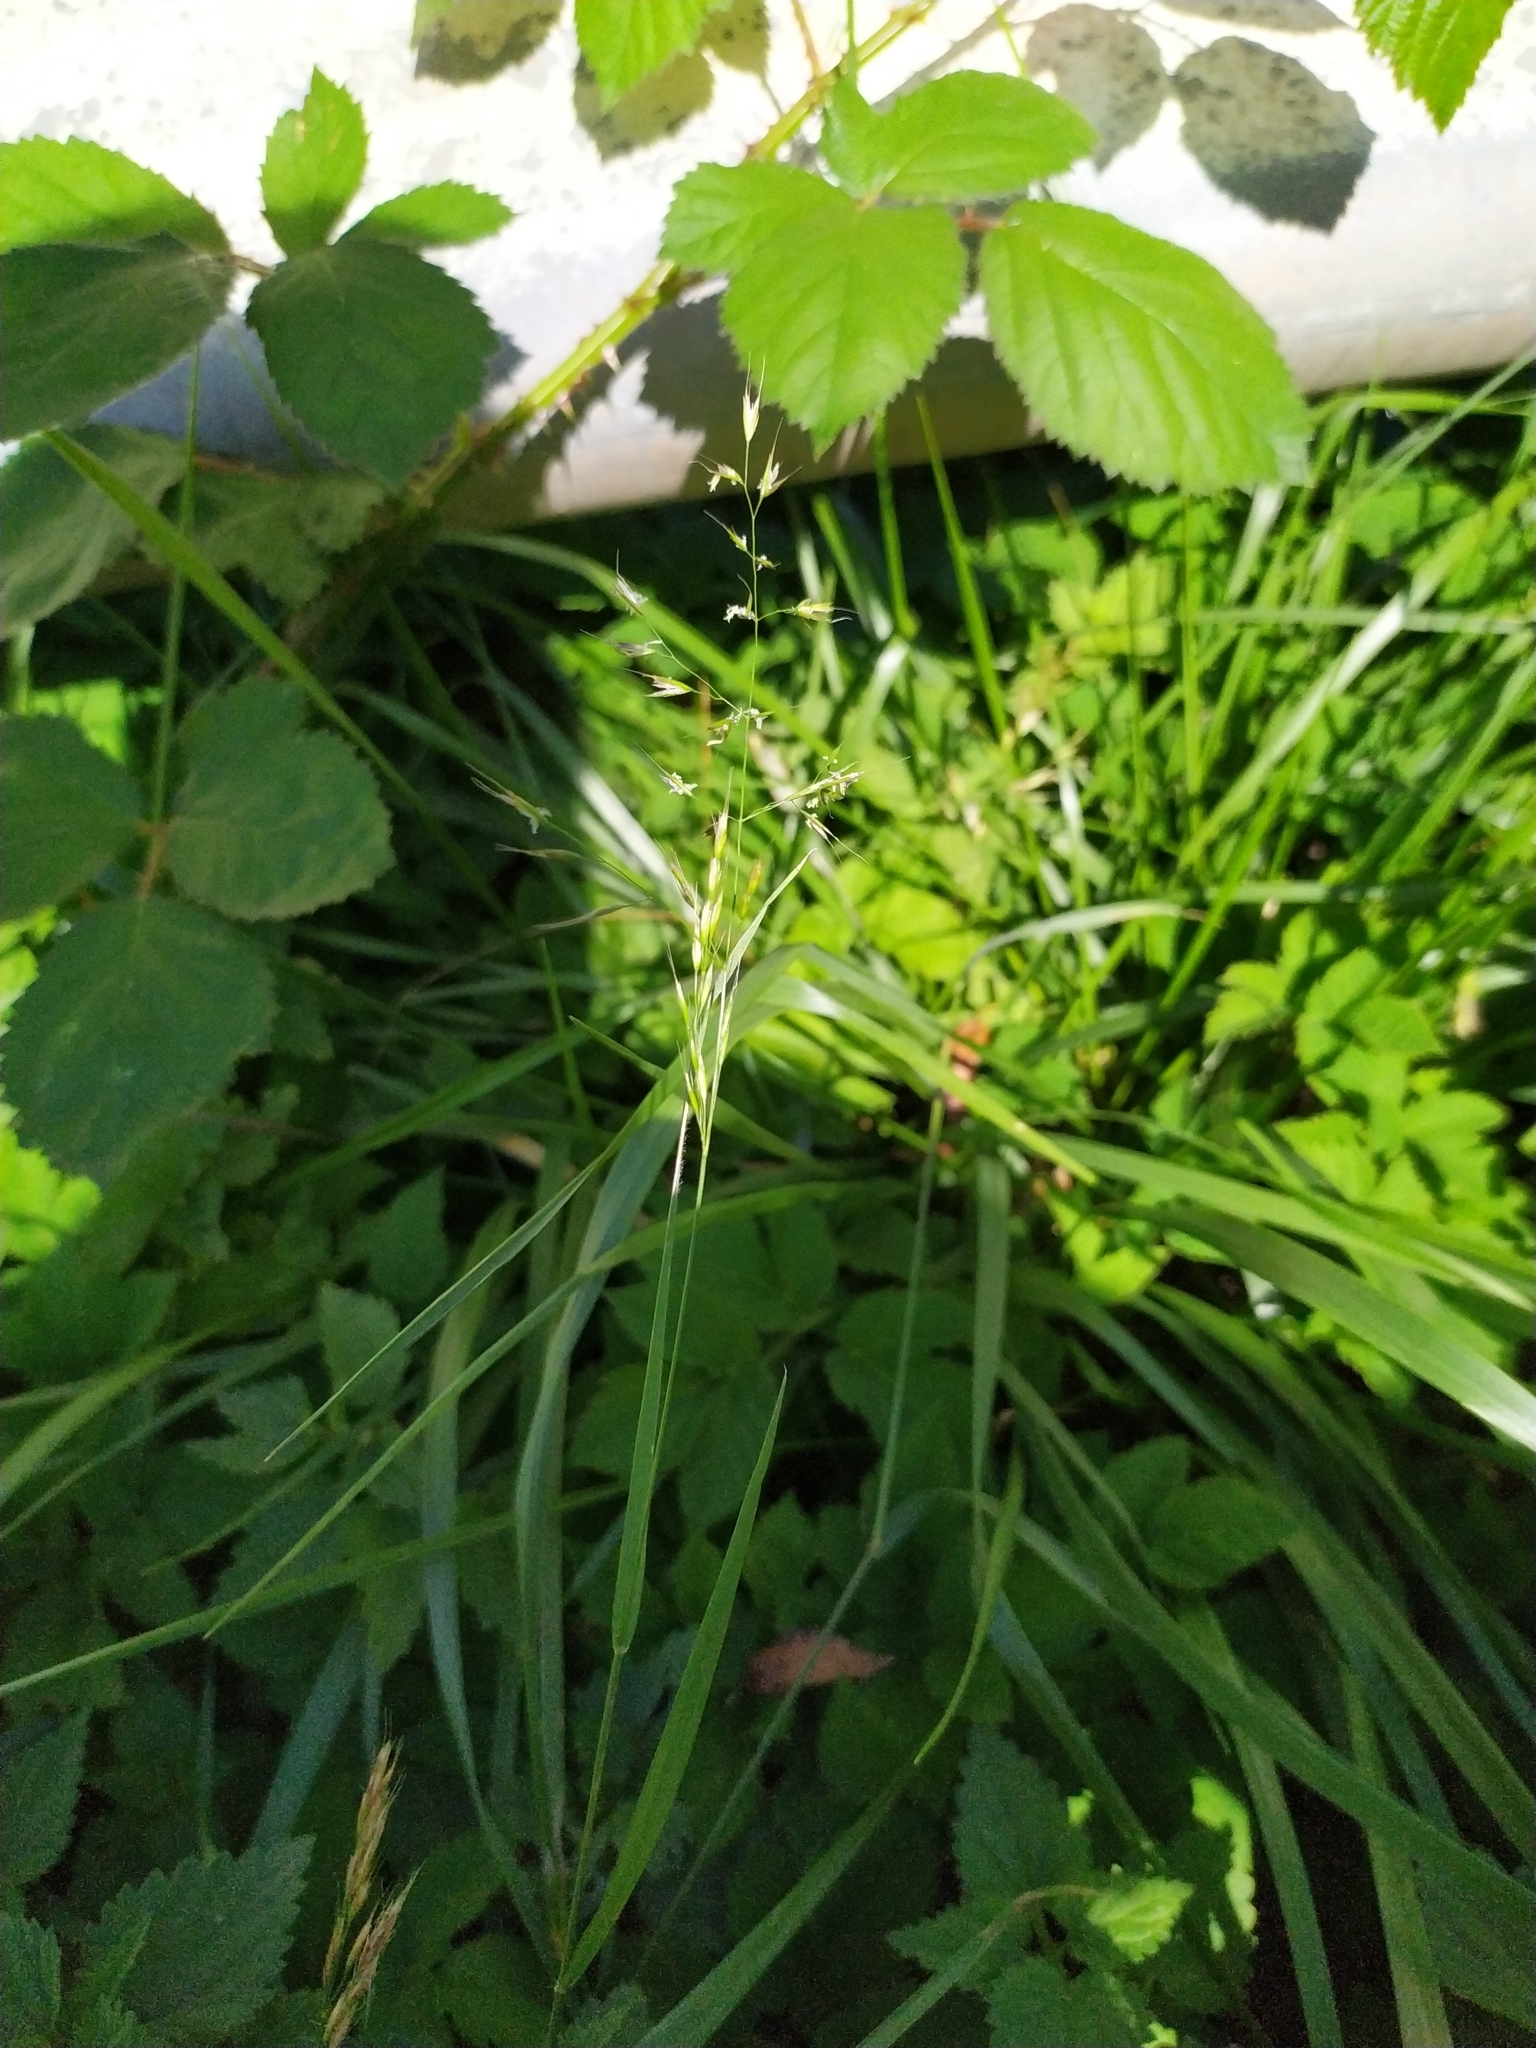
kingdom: Plantae
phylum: Tracheophyta
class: Liliopsida
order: Poales
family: Poaceae
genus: Trisetum
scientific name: Trisetum flavescens
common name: Yellow oat-grass
